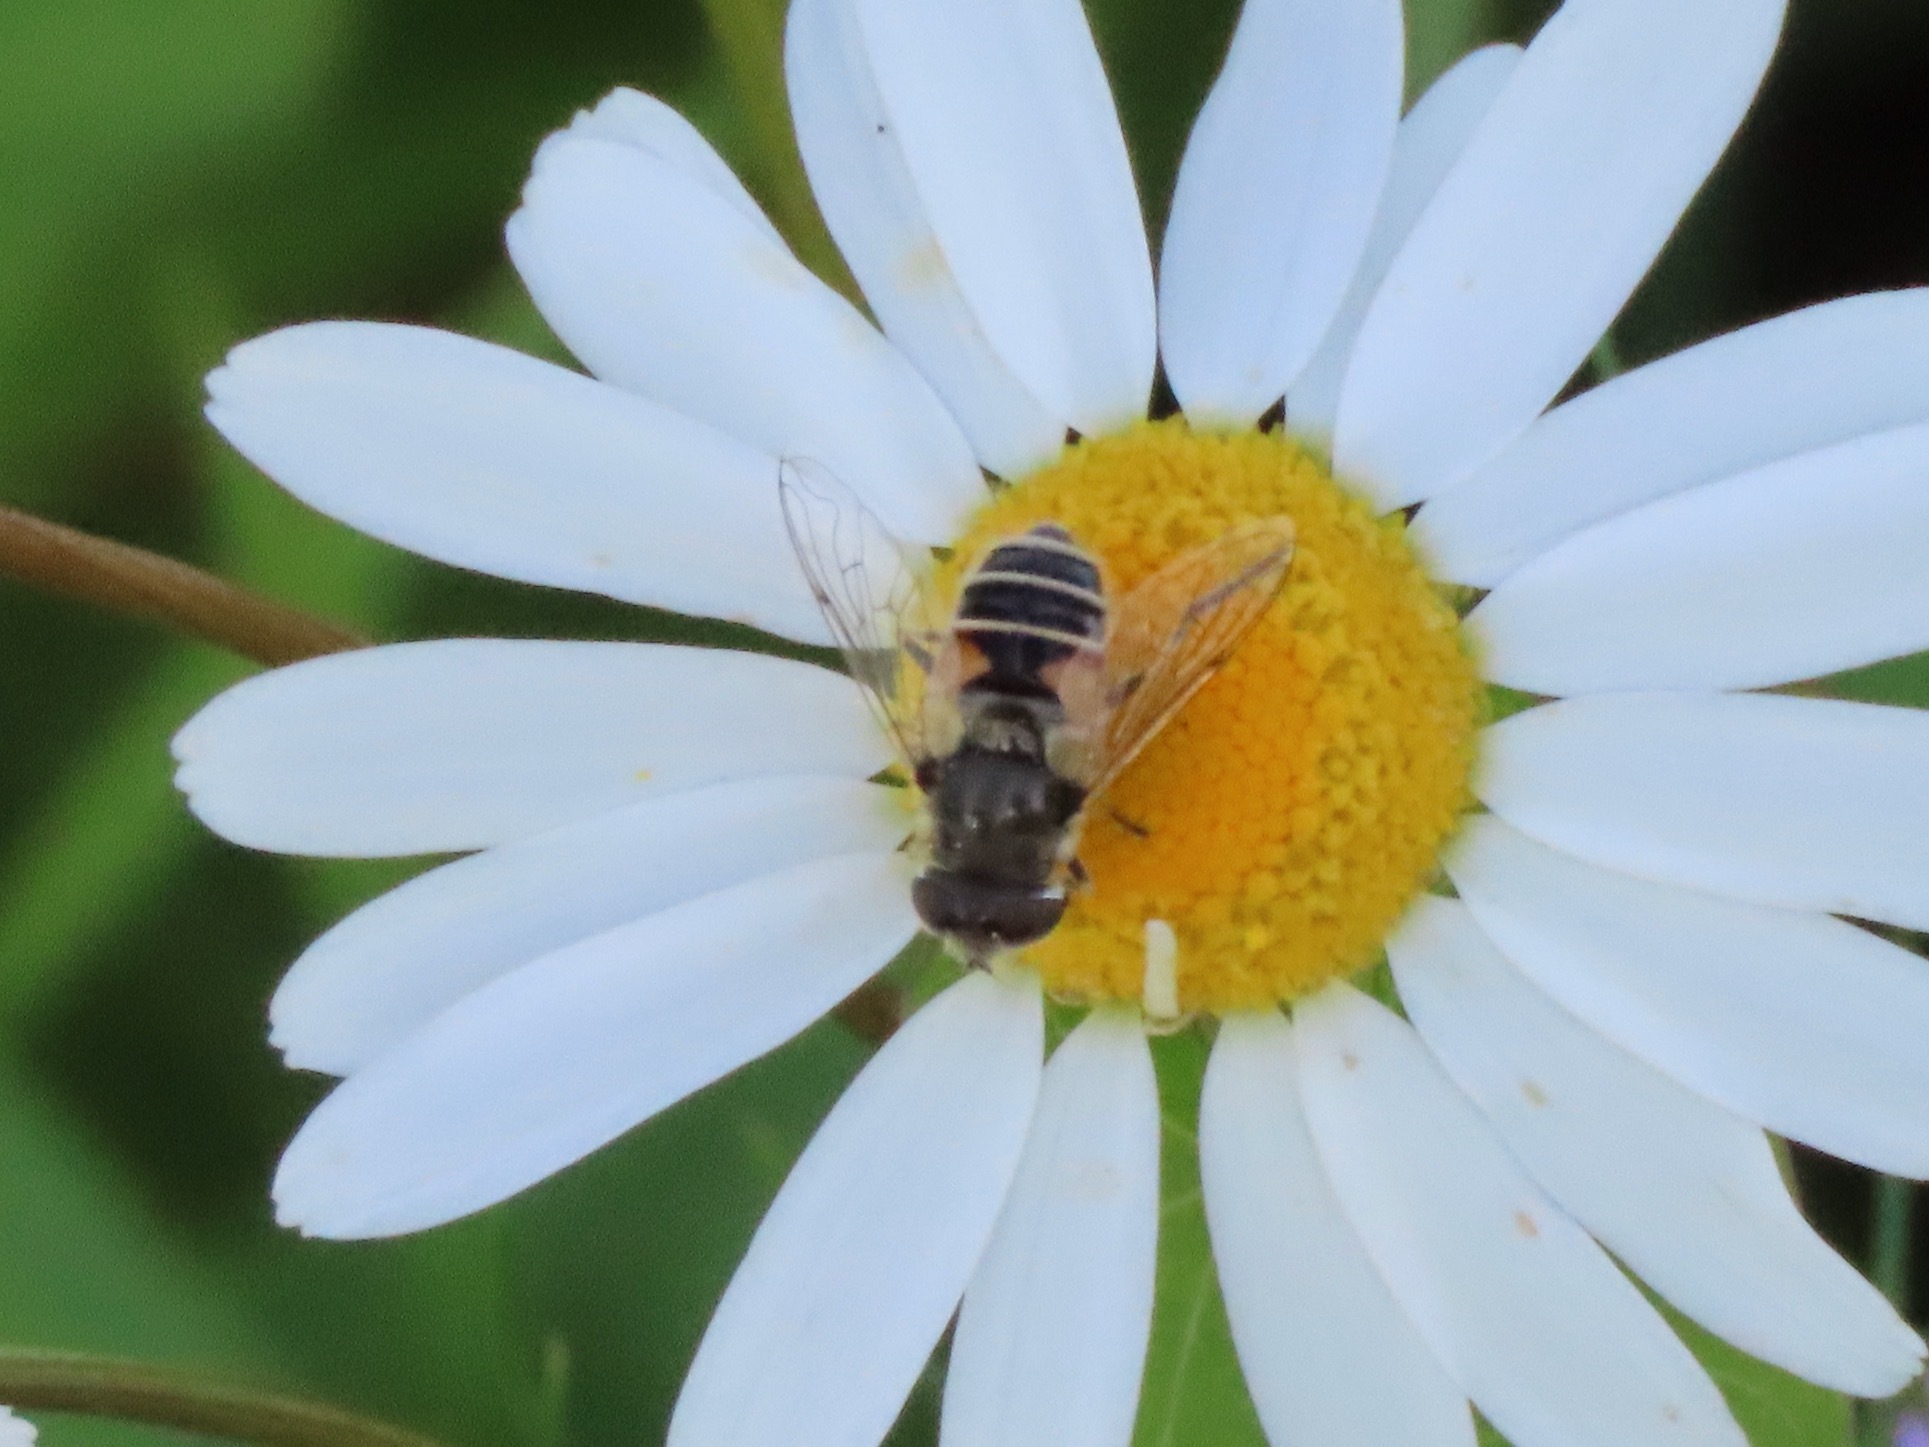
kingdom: Animalia
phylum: Arthropoda
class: Insecta
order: Diptera
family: Syrphidae
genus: Eristalis
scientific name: Eristalis arbustorum
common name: Hover fly
